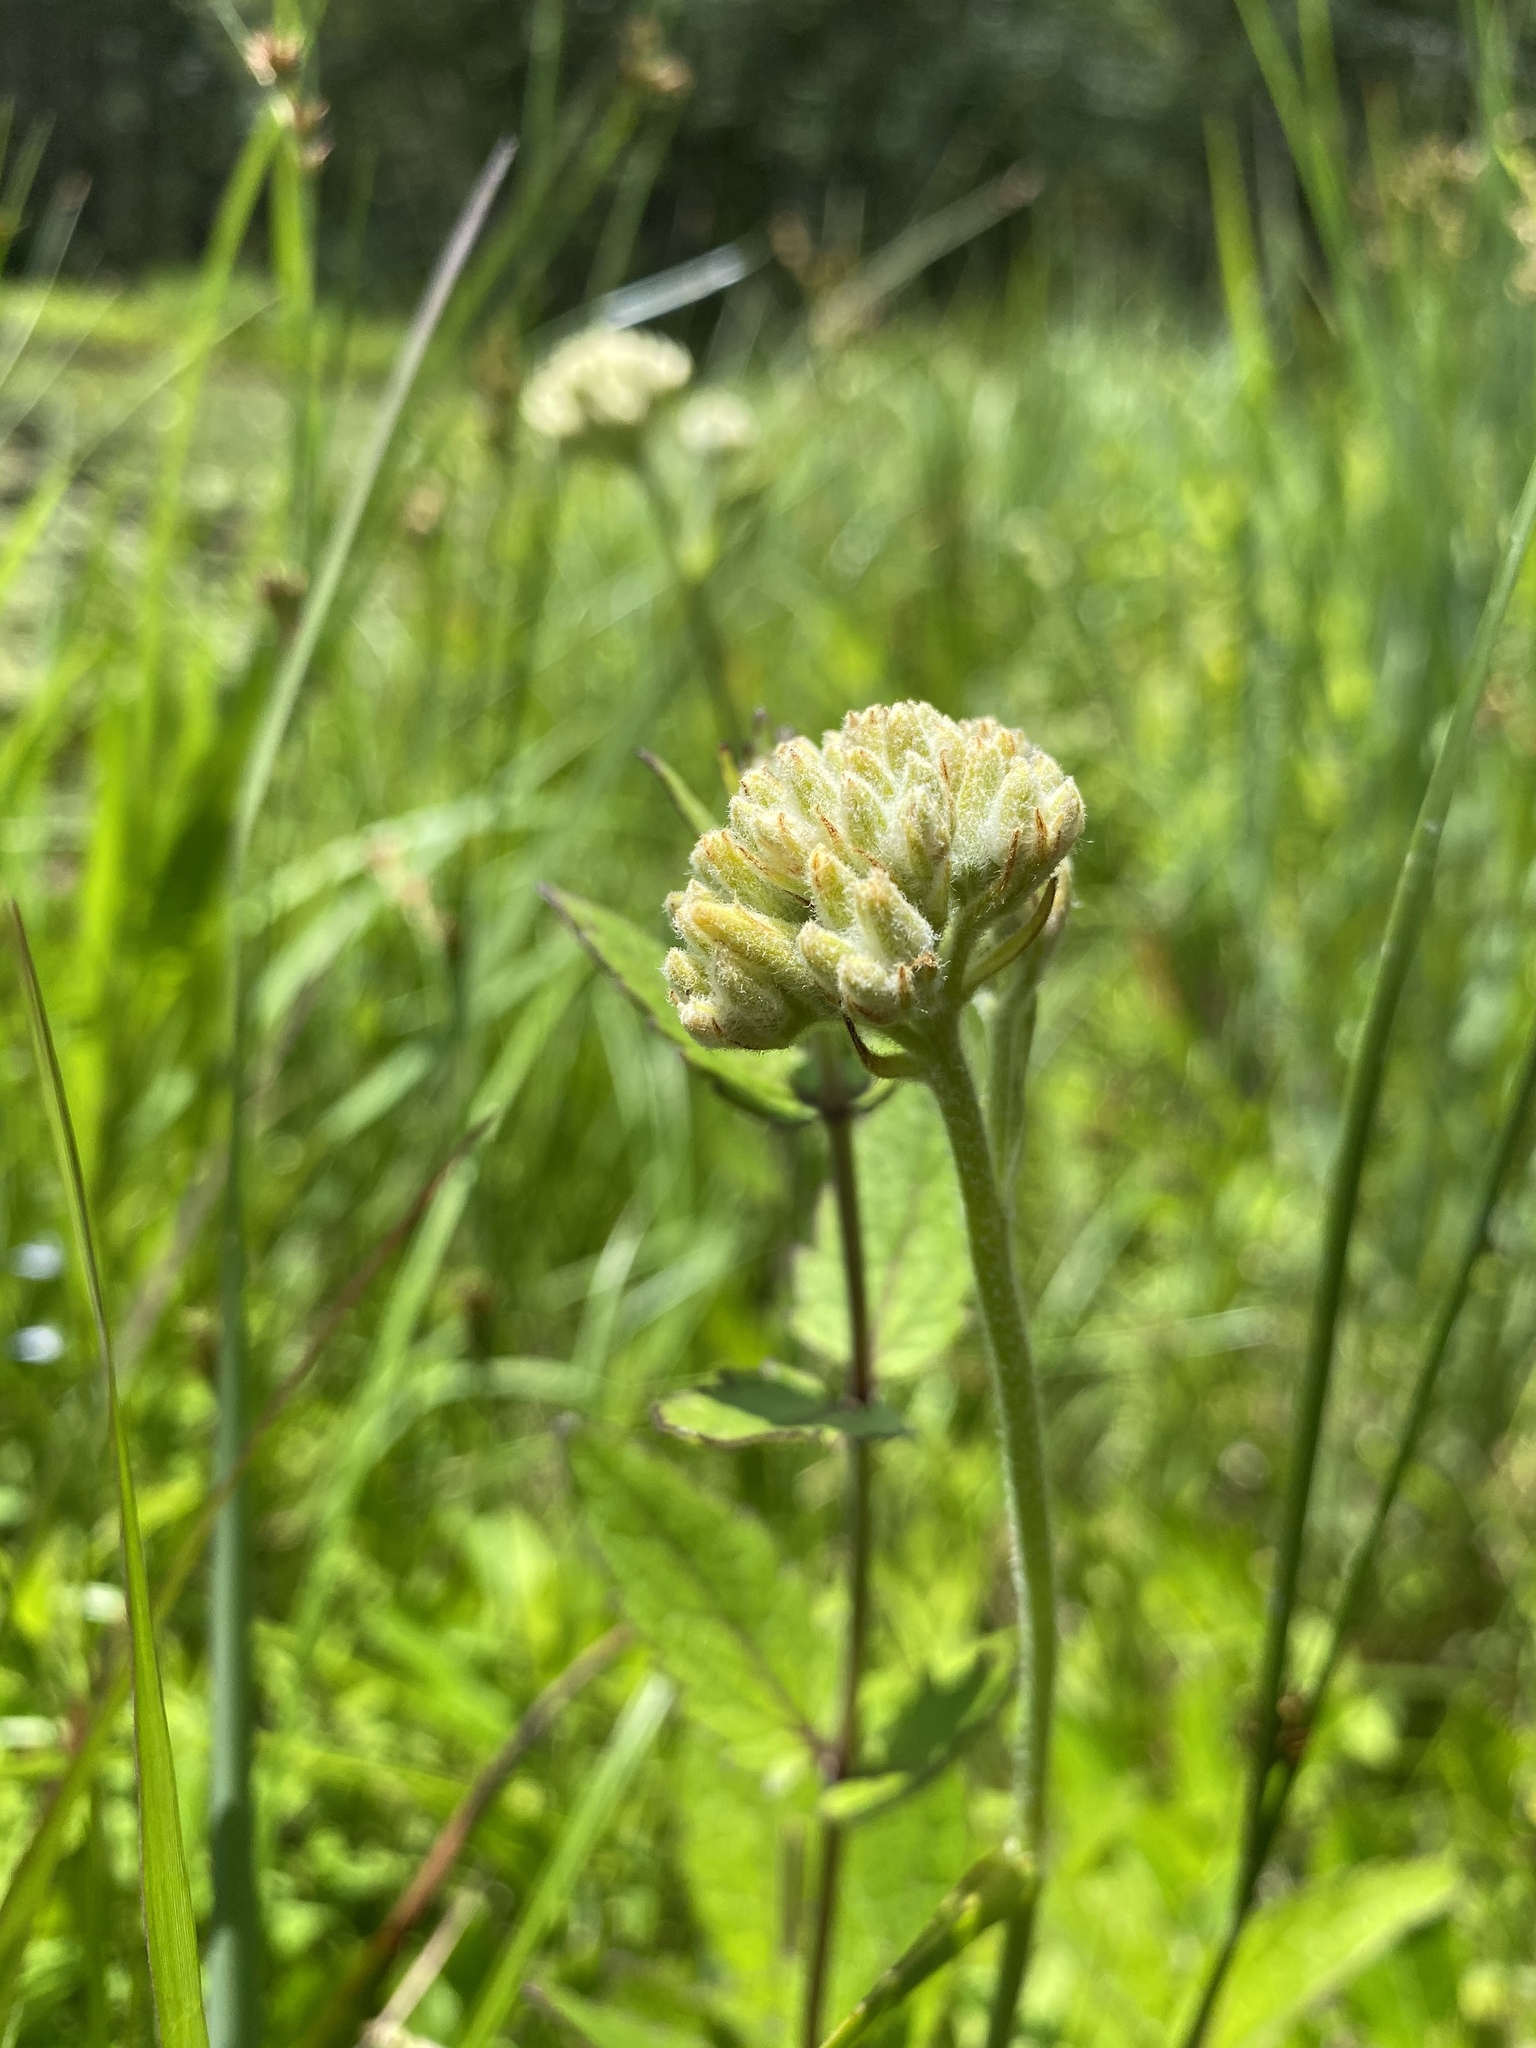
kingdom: Plantae
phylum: Tracheophyta
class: Liliopsida
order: Commelinales
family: Haemodoraceae
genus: Lachnanthes
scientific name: Lachnanthes caroliana
